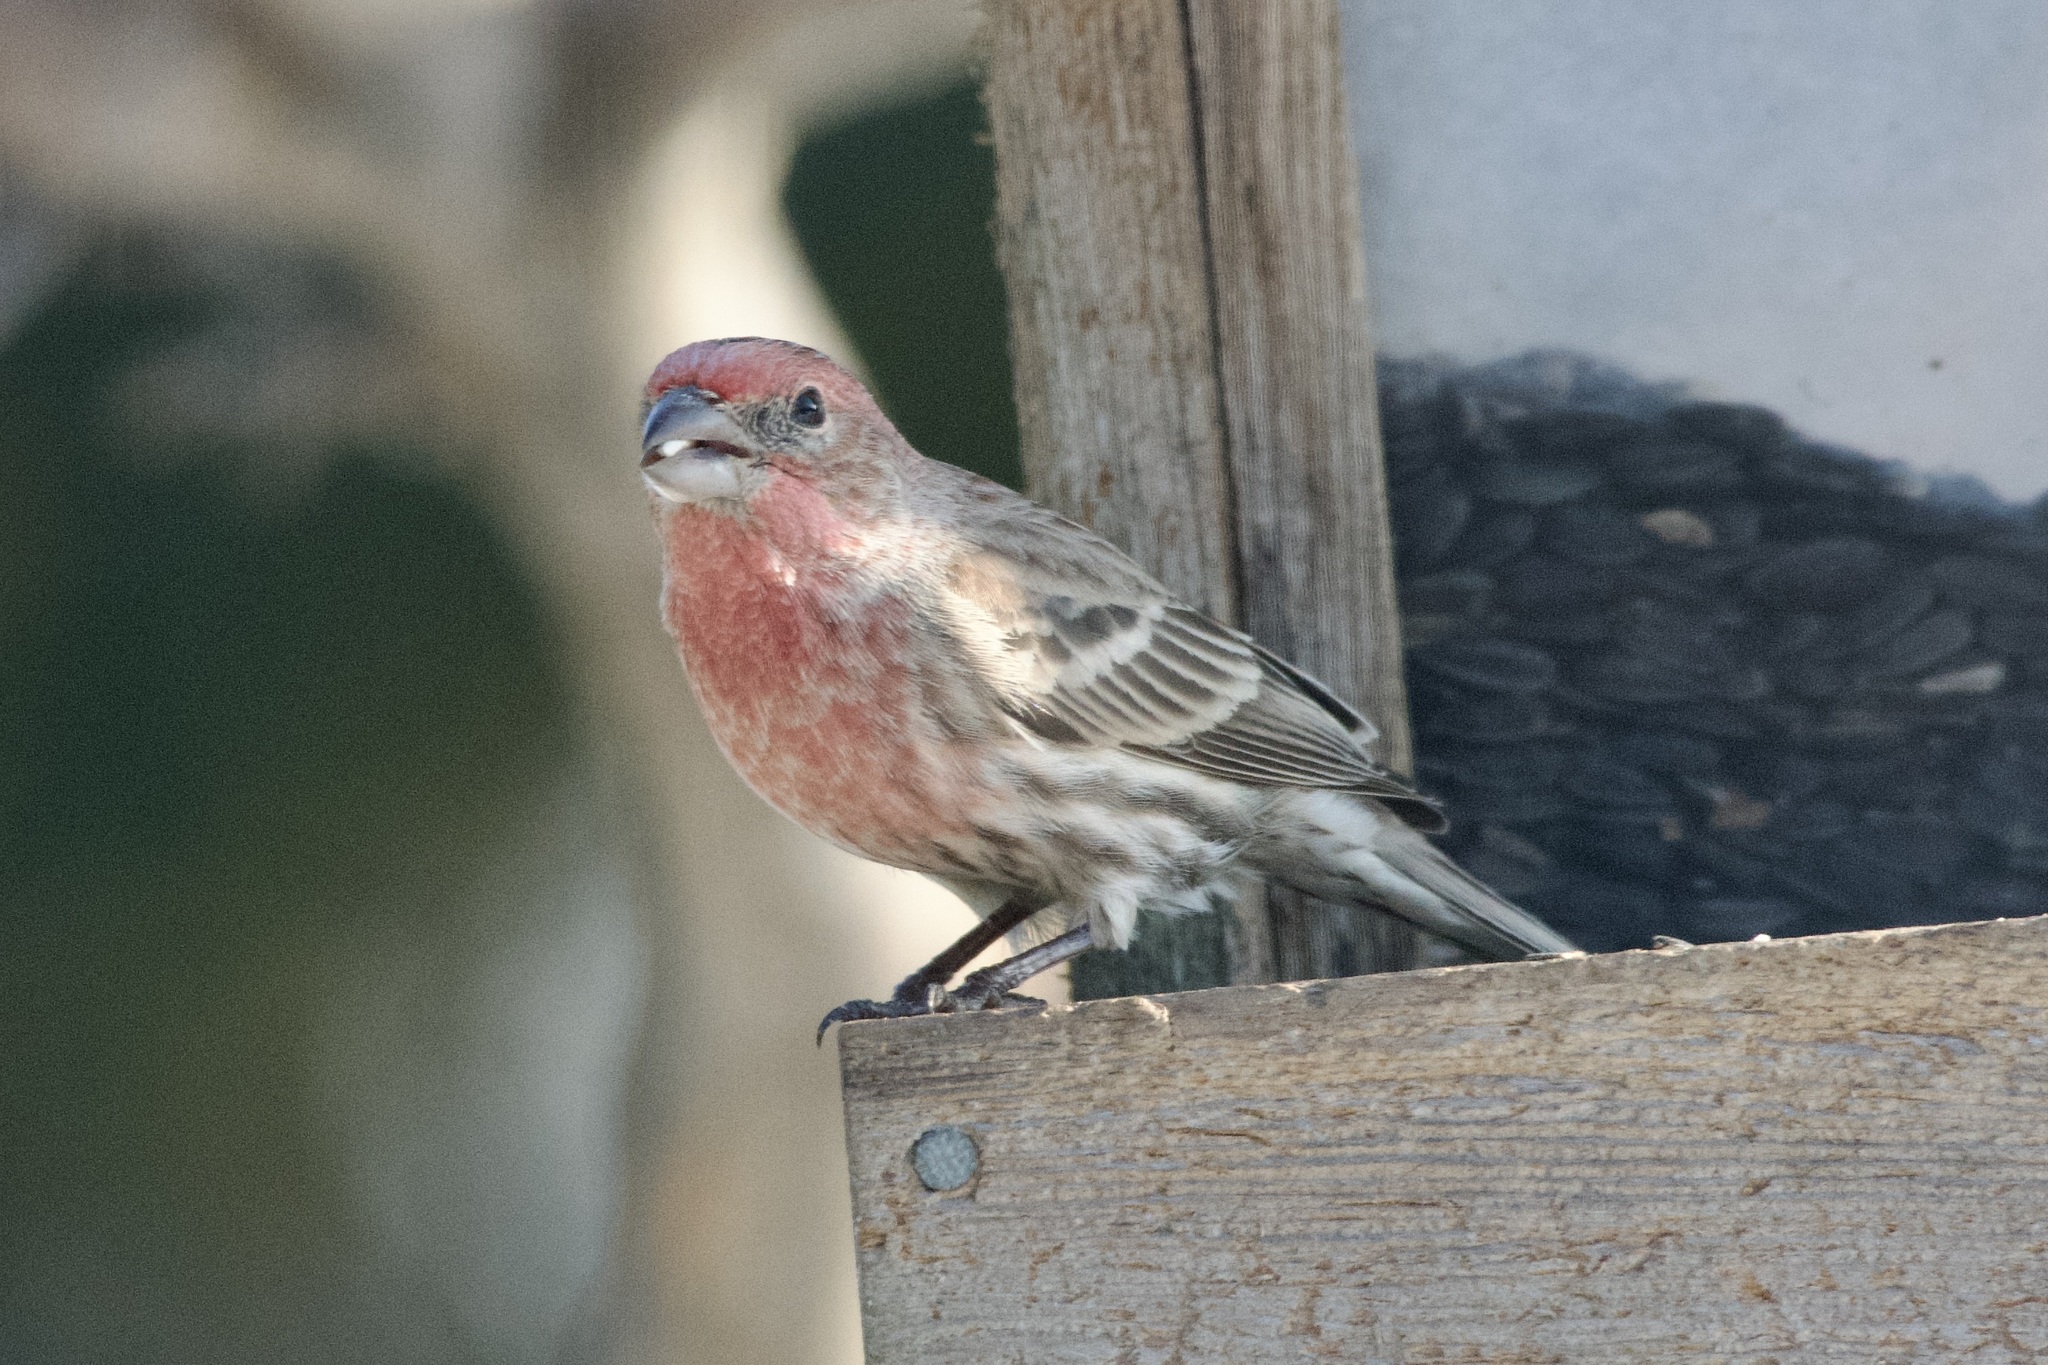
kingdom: Animalia
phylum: Chordata
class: Aves
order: Passeriformes
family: Fringillidae
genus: Haemorhous
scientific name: Haemorhous mexicanus
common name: House finch
